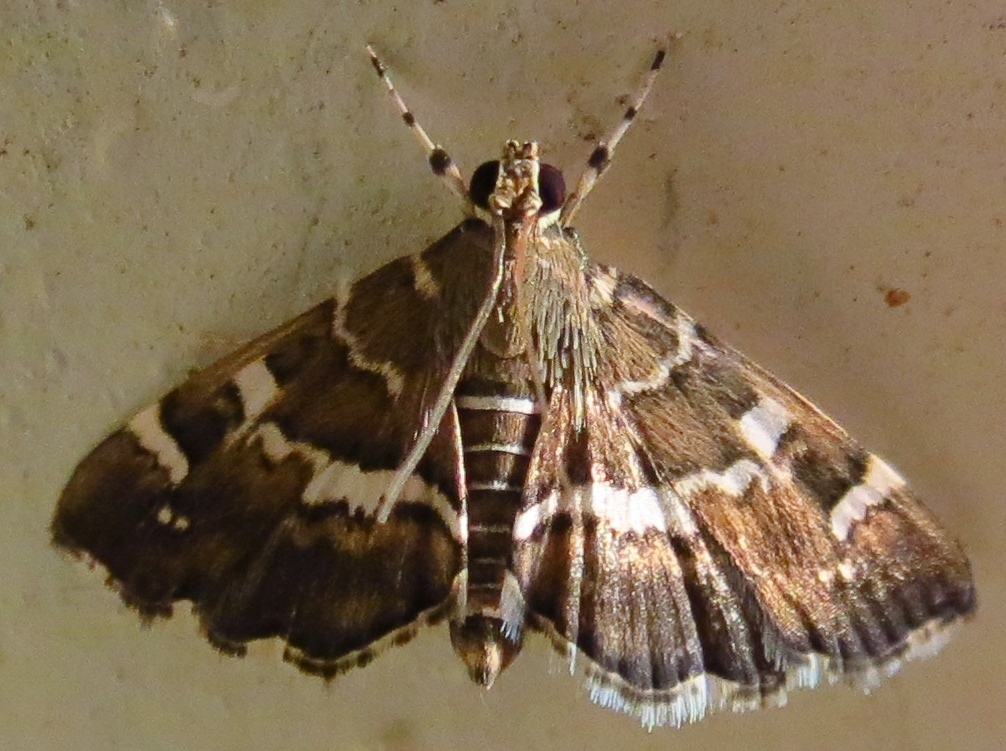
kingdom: Animalia
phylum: Arthropoda
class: Insecta
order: Lepidoptera
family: Crambidae
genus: Hymenia
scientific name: Hymenia perspectalis
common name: Spotted beet webworm
